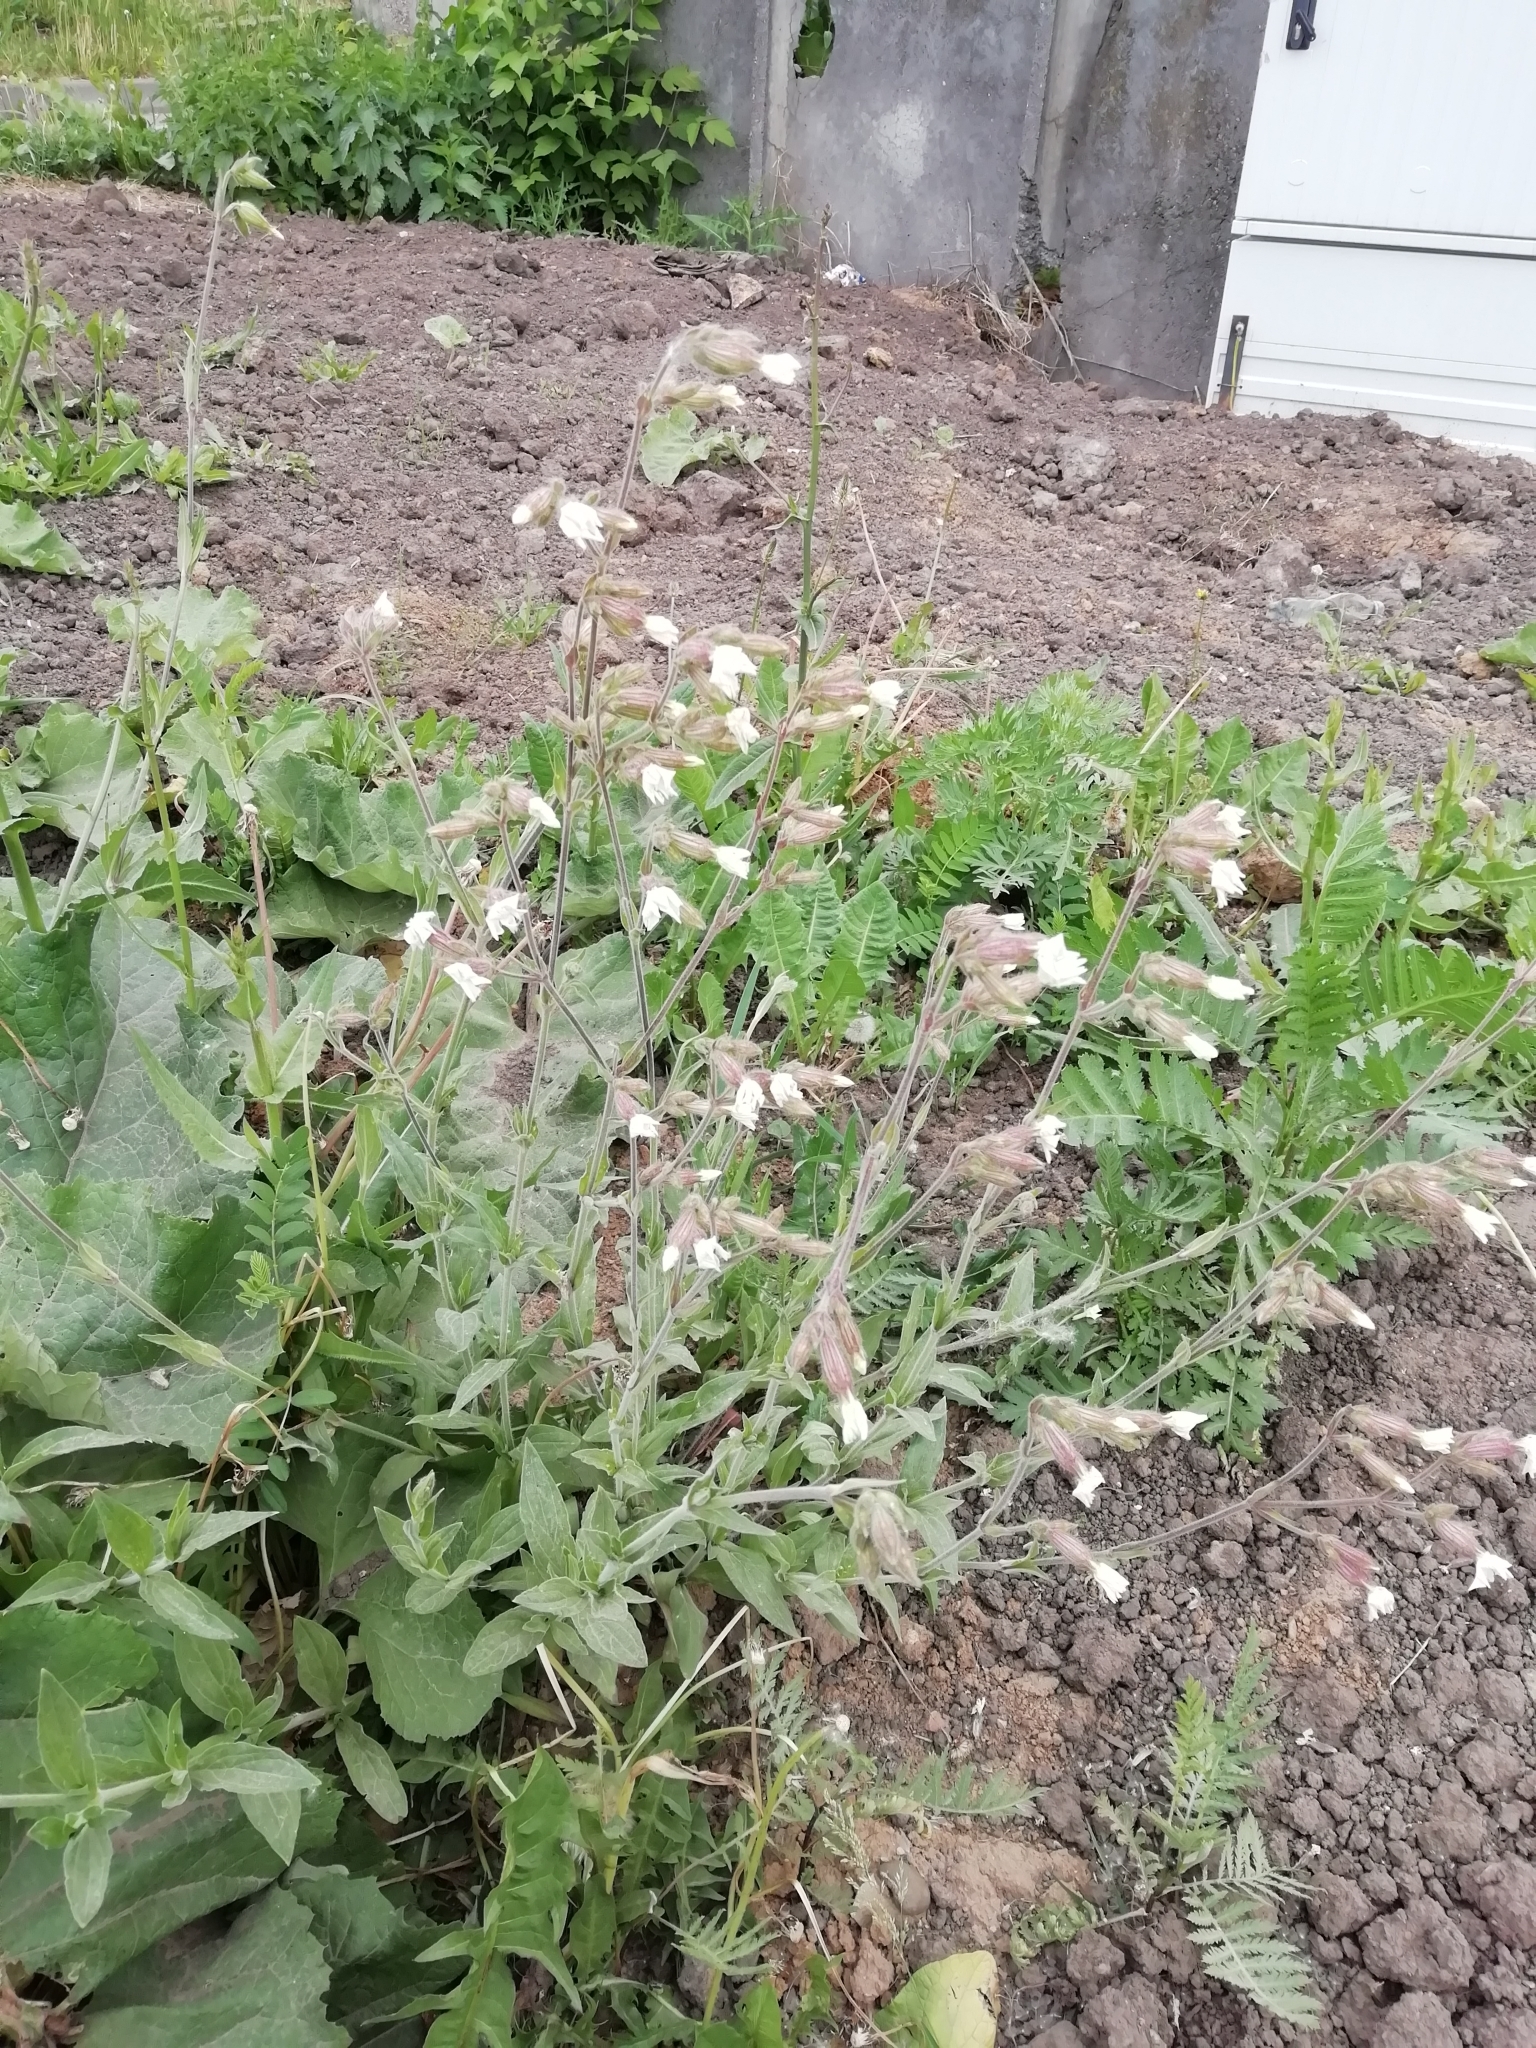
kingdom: Plantae
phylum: Tracheophyta
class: Magnoliopsida
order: Caryophyllales
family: Caryophyllaceae
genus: Silene
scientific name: Silene latifolia
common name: White campion
